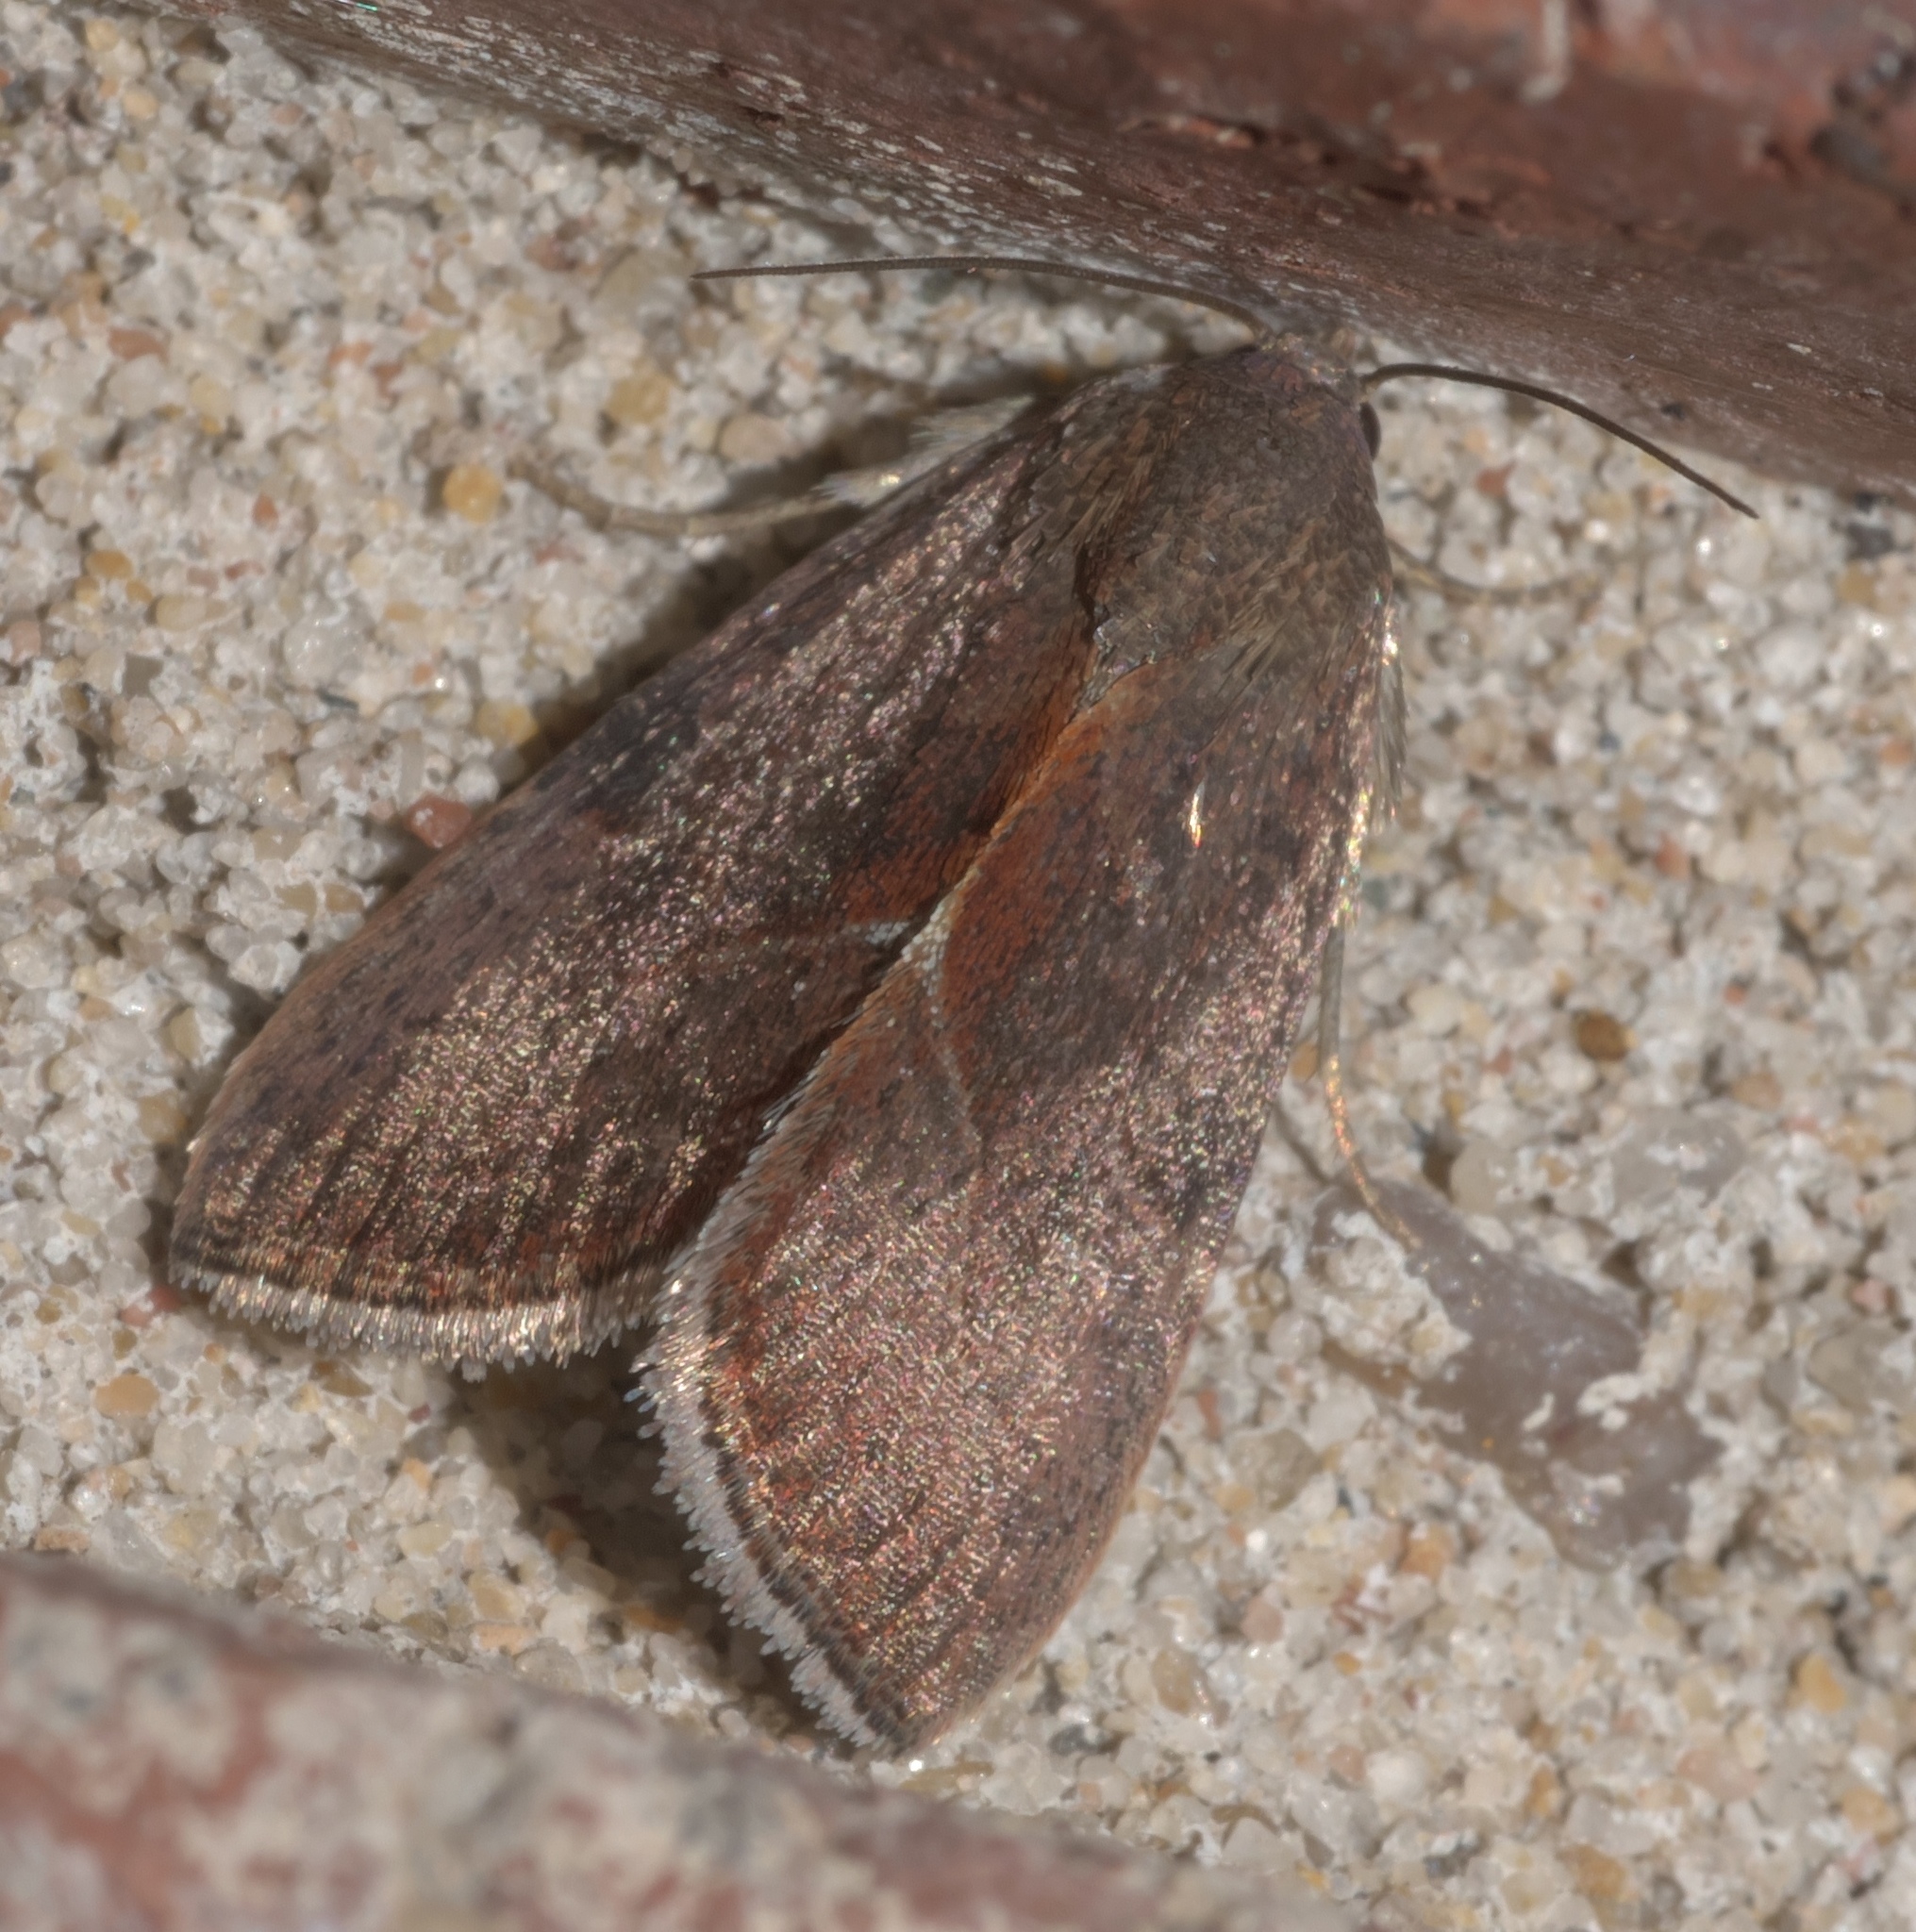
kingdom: Animalia
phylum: Arthropoda
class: Insecta
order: Lepidoptera
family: Noctuidae
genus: Galgula
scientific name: Galgula partita
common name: Wedgeling
